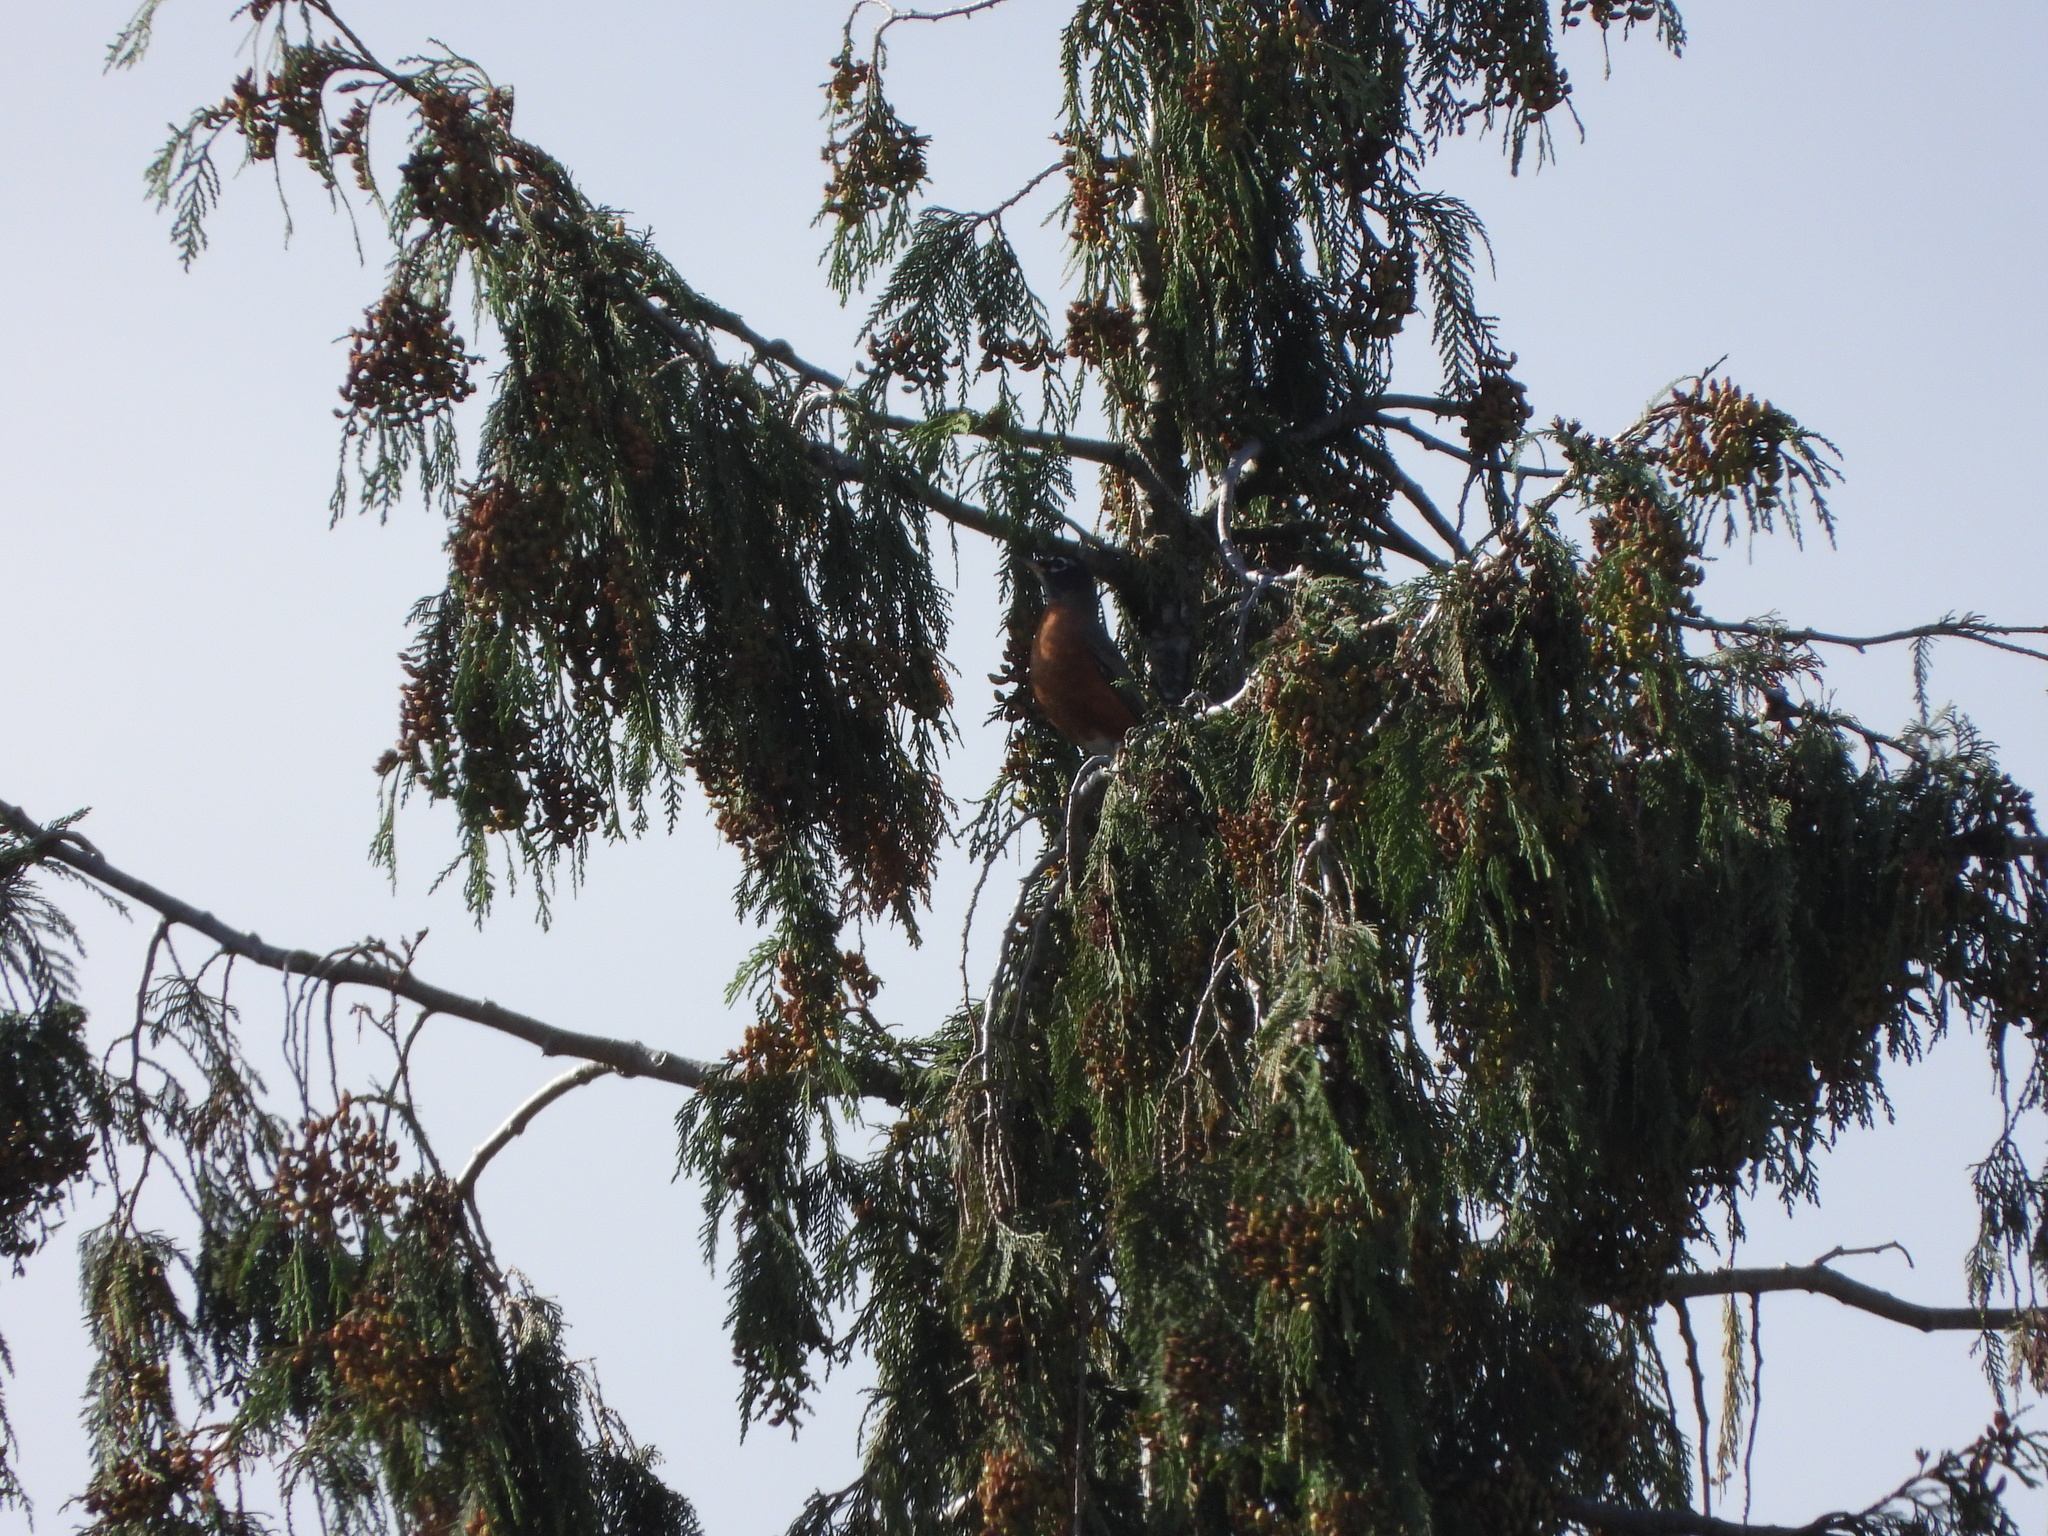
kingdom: Animalia
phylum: Chordata
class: Aves
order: Passeriformes
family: Turdidae
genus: Turdus
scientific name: Turdus migratorius
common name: American robin
